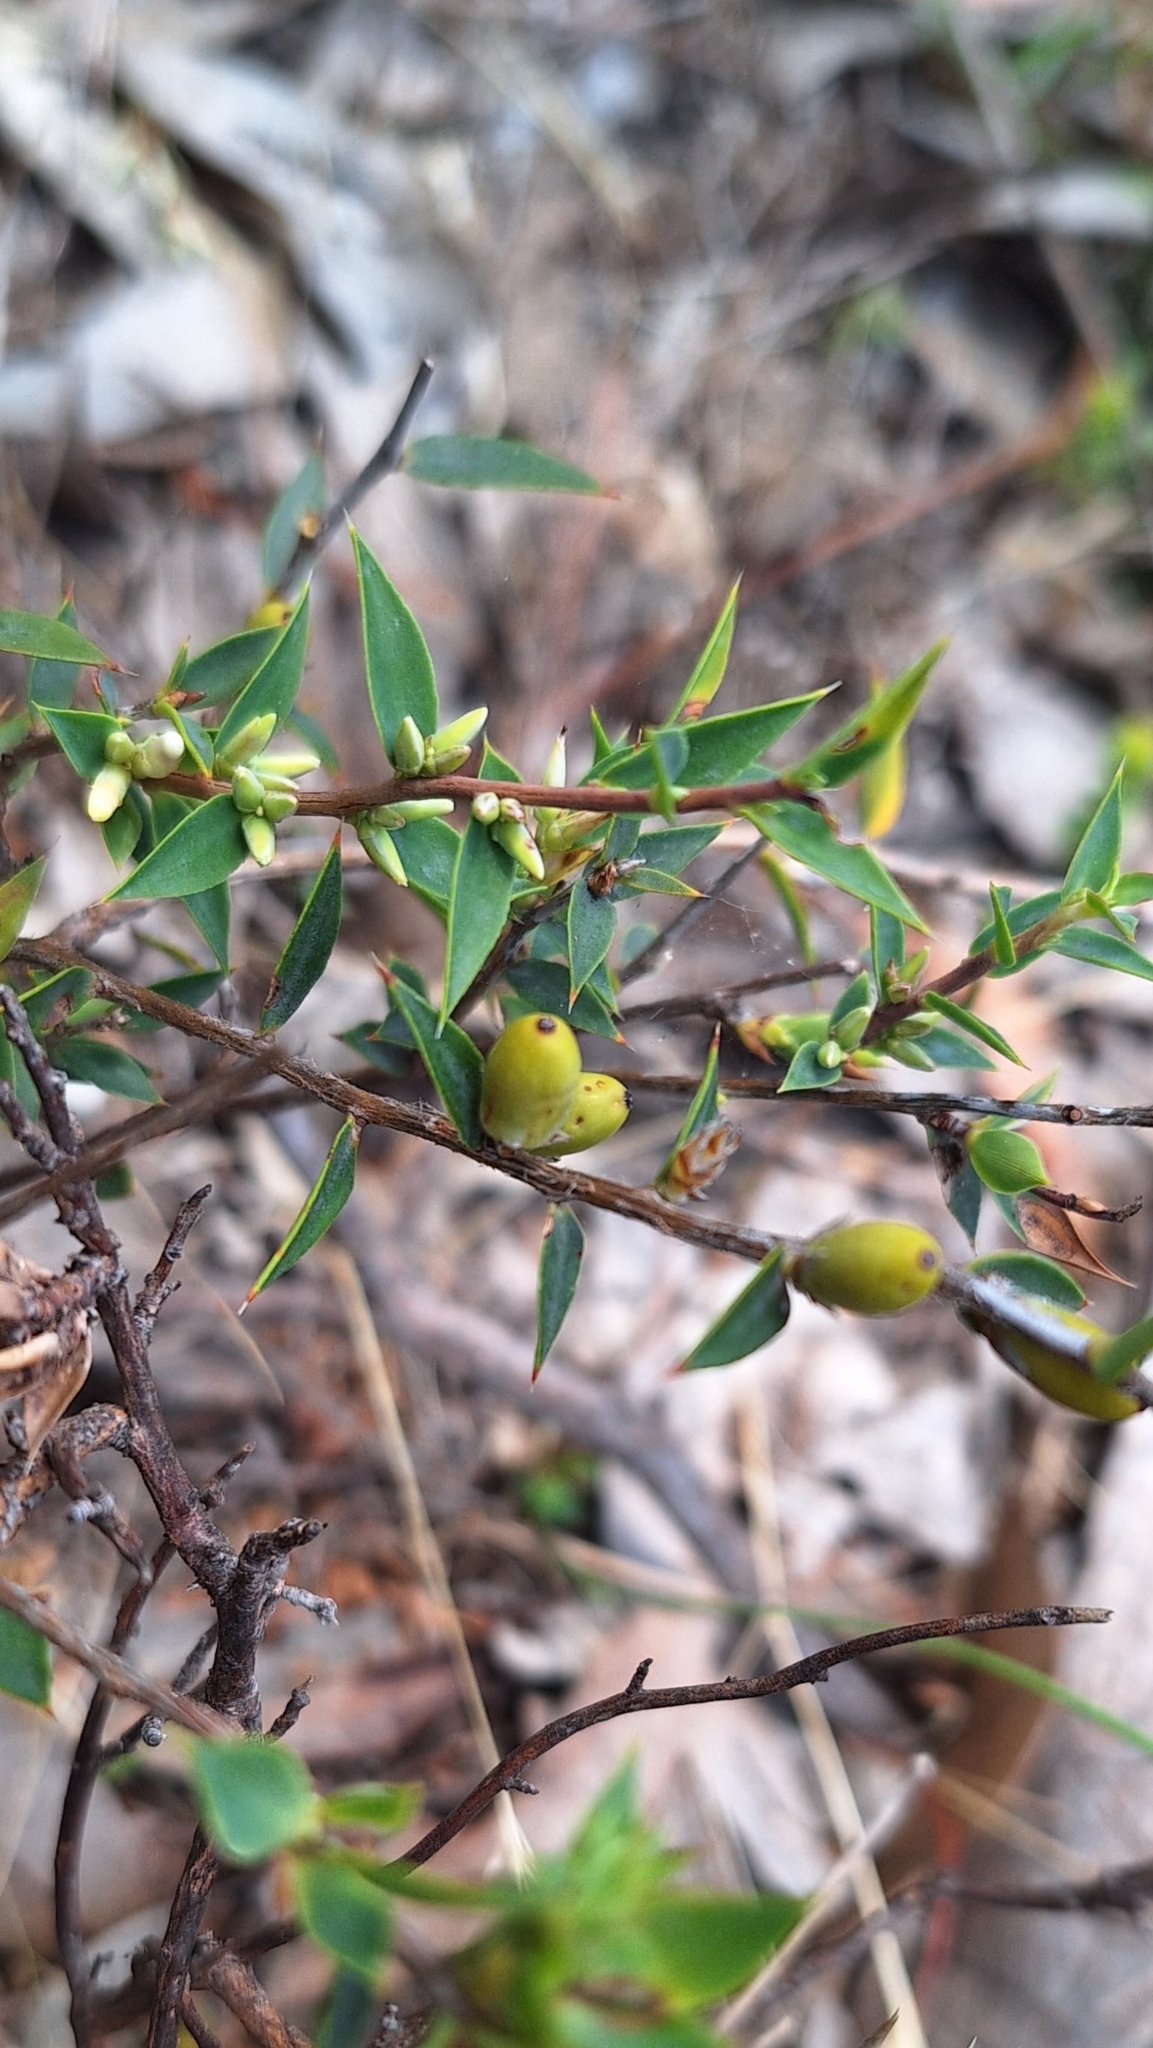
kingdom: Plantae
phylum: Tracheophyta
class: Magnoliopsida
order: Ericales
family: Ericaceae
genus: Styphelia
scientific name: Styphelia rufa
